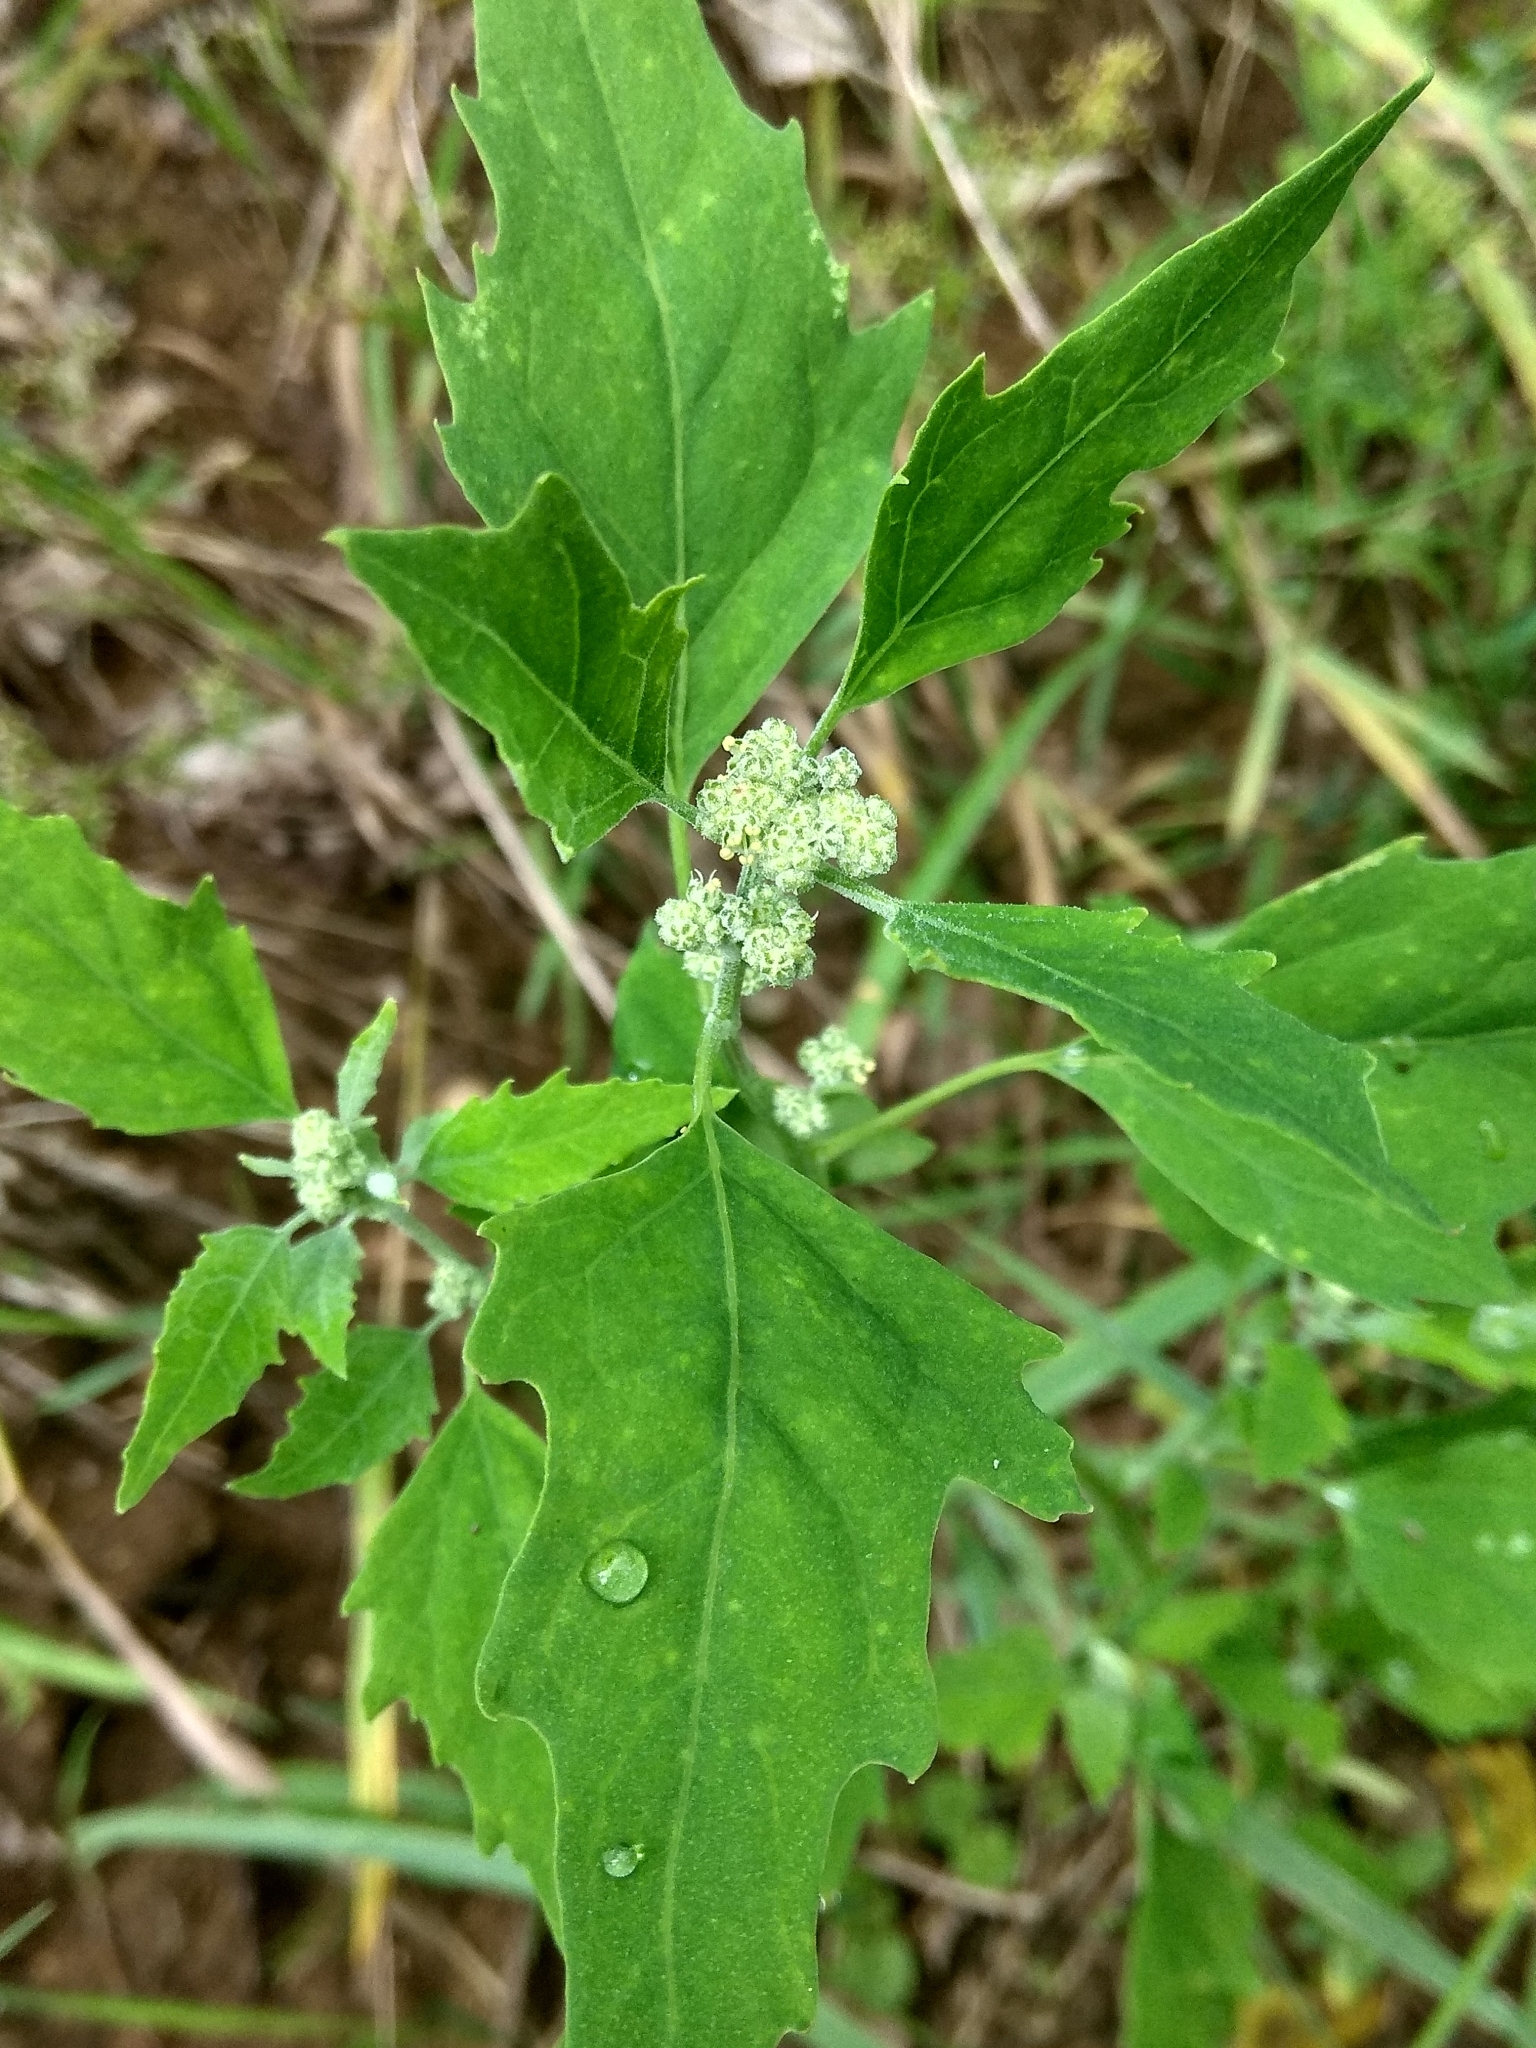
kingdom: Plantae
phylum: Tracheophyta
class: Magnoliopsida
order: Caryophyllales
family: Amaranthaceae
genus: Chenopodium
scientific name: Chenopodium album
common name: Fat-hen
